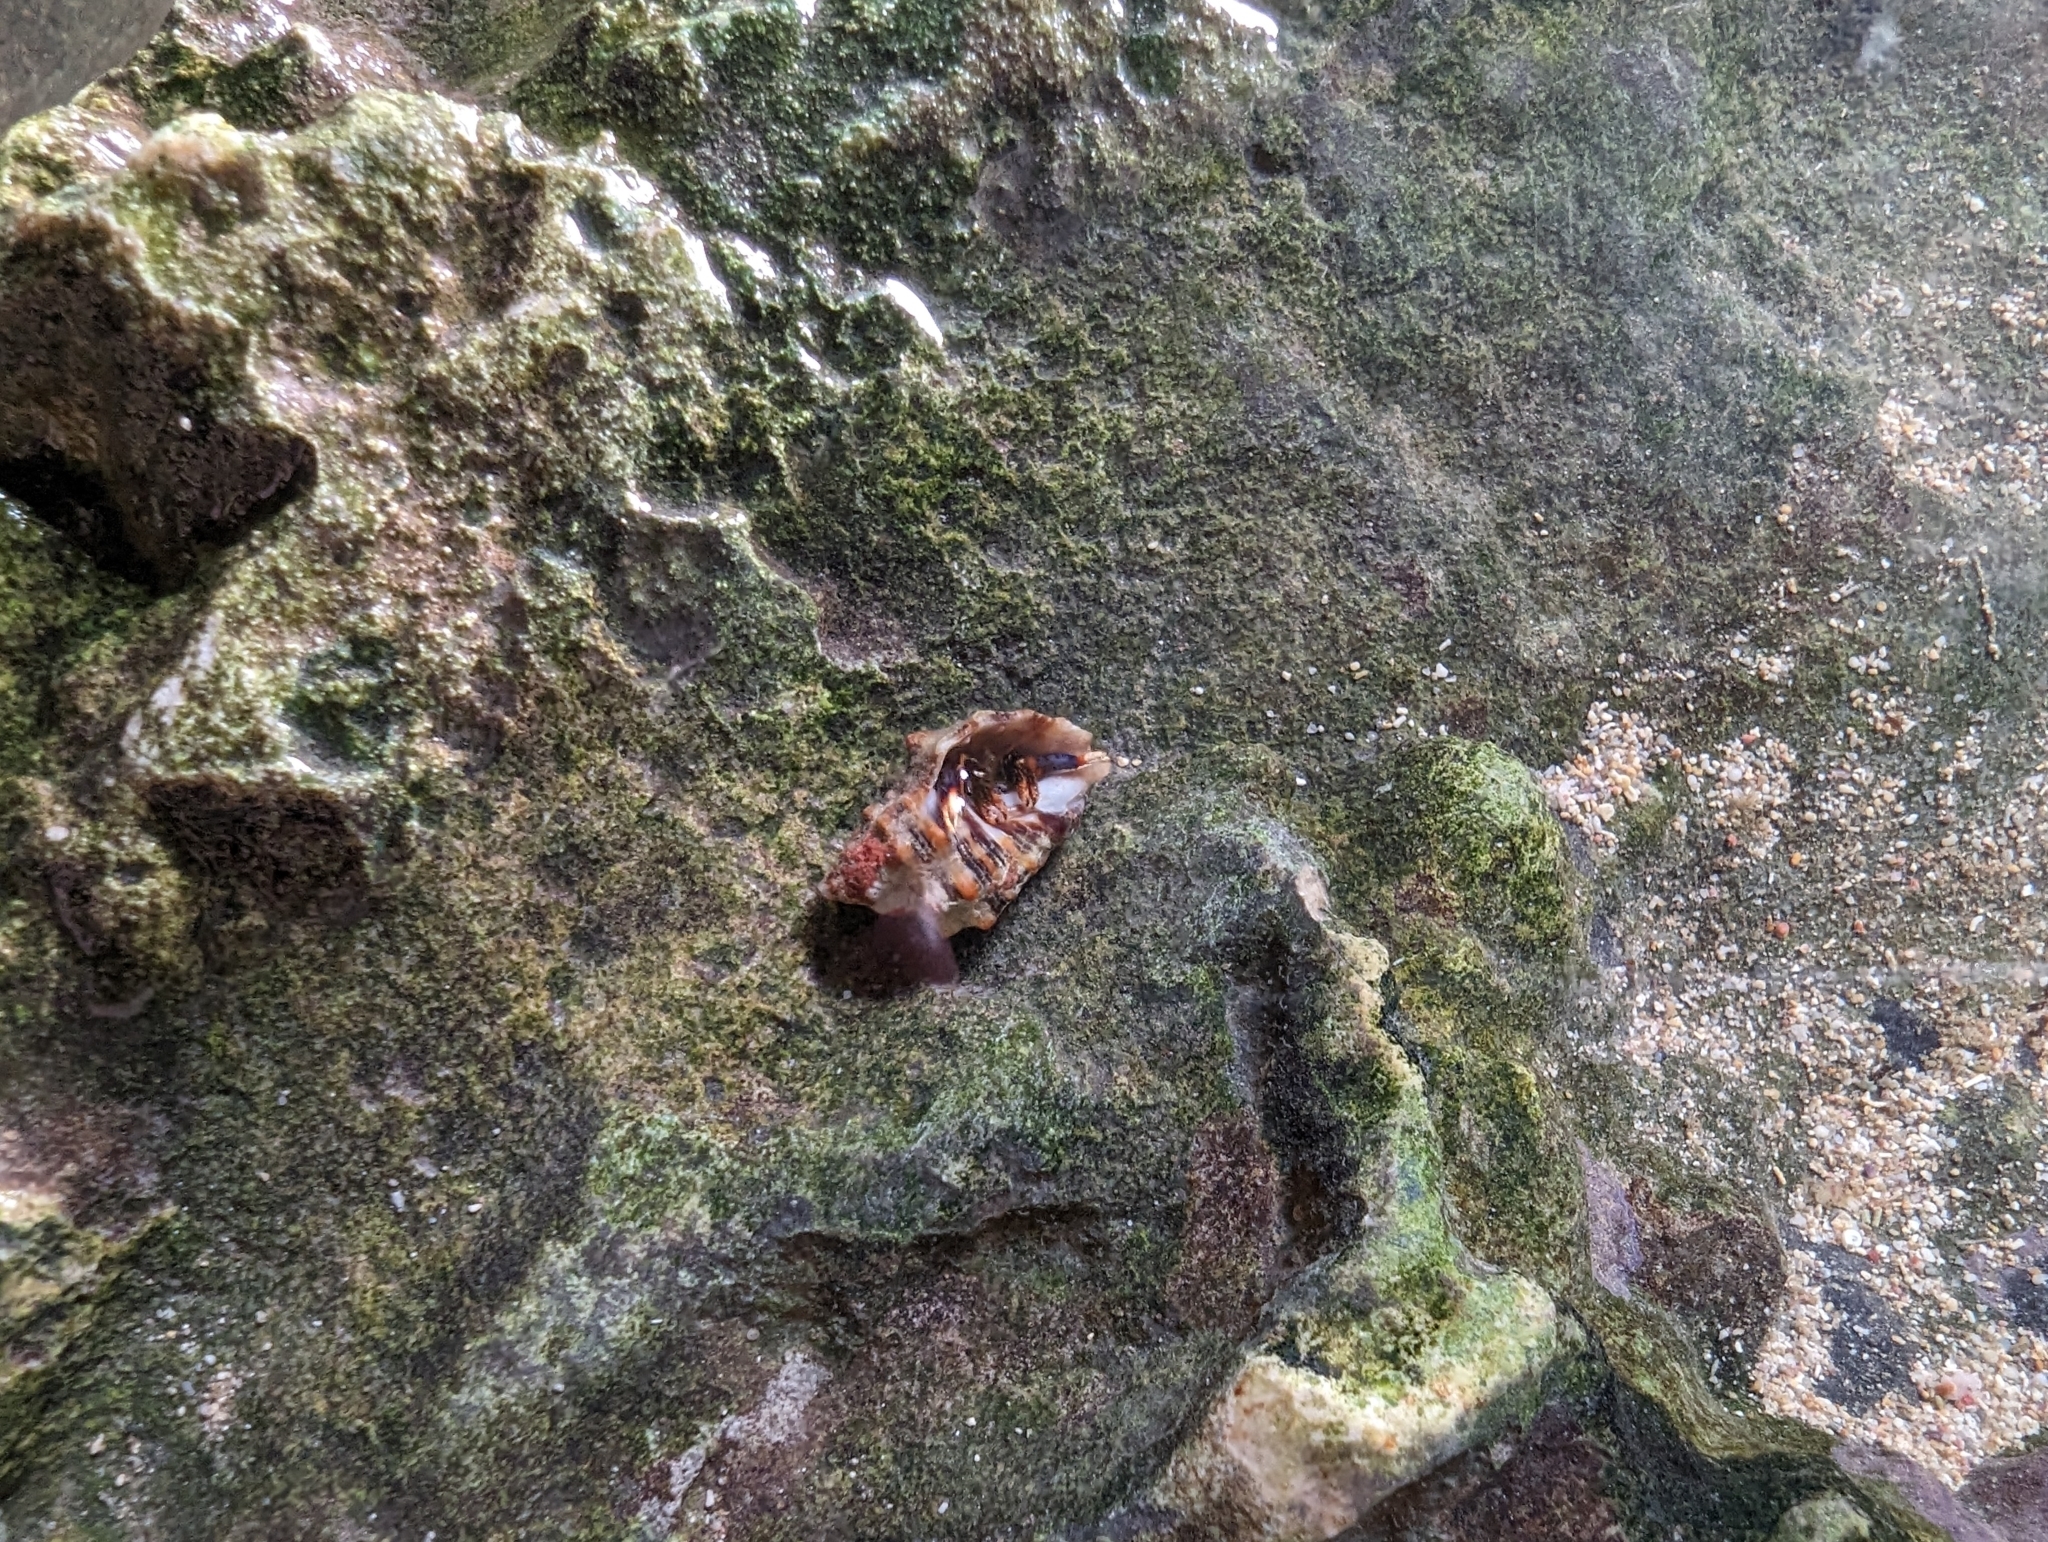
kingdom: Animalia
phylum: Arthropoda
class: Malacostraca
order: Decapoda
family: Diogenidae
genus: Clibanarius
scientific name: Clibanarius tricolor
